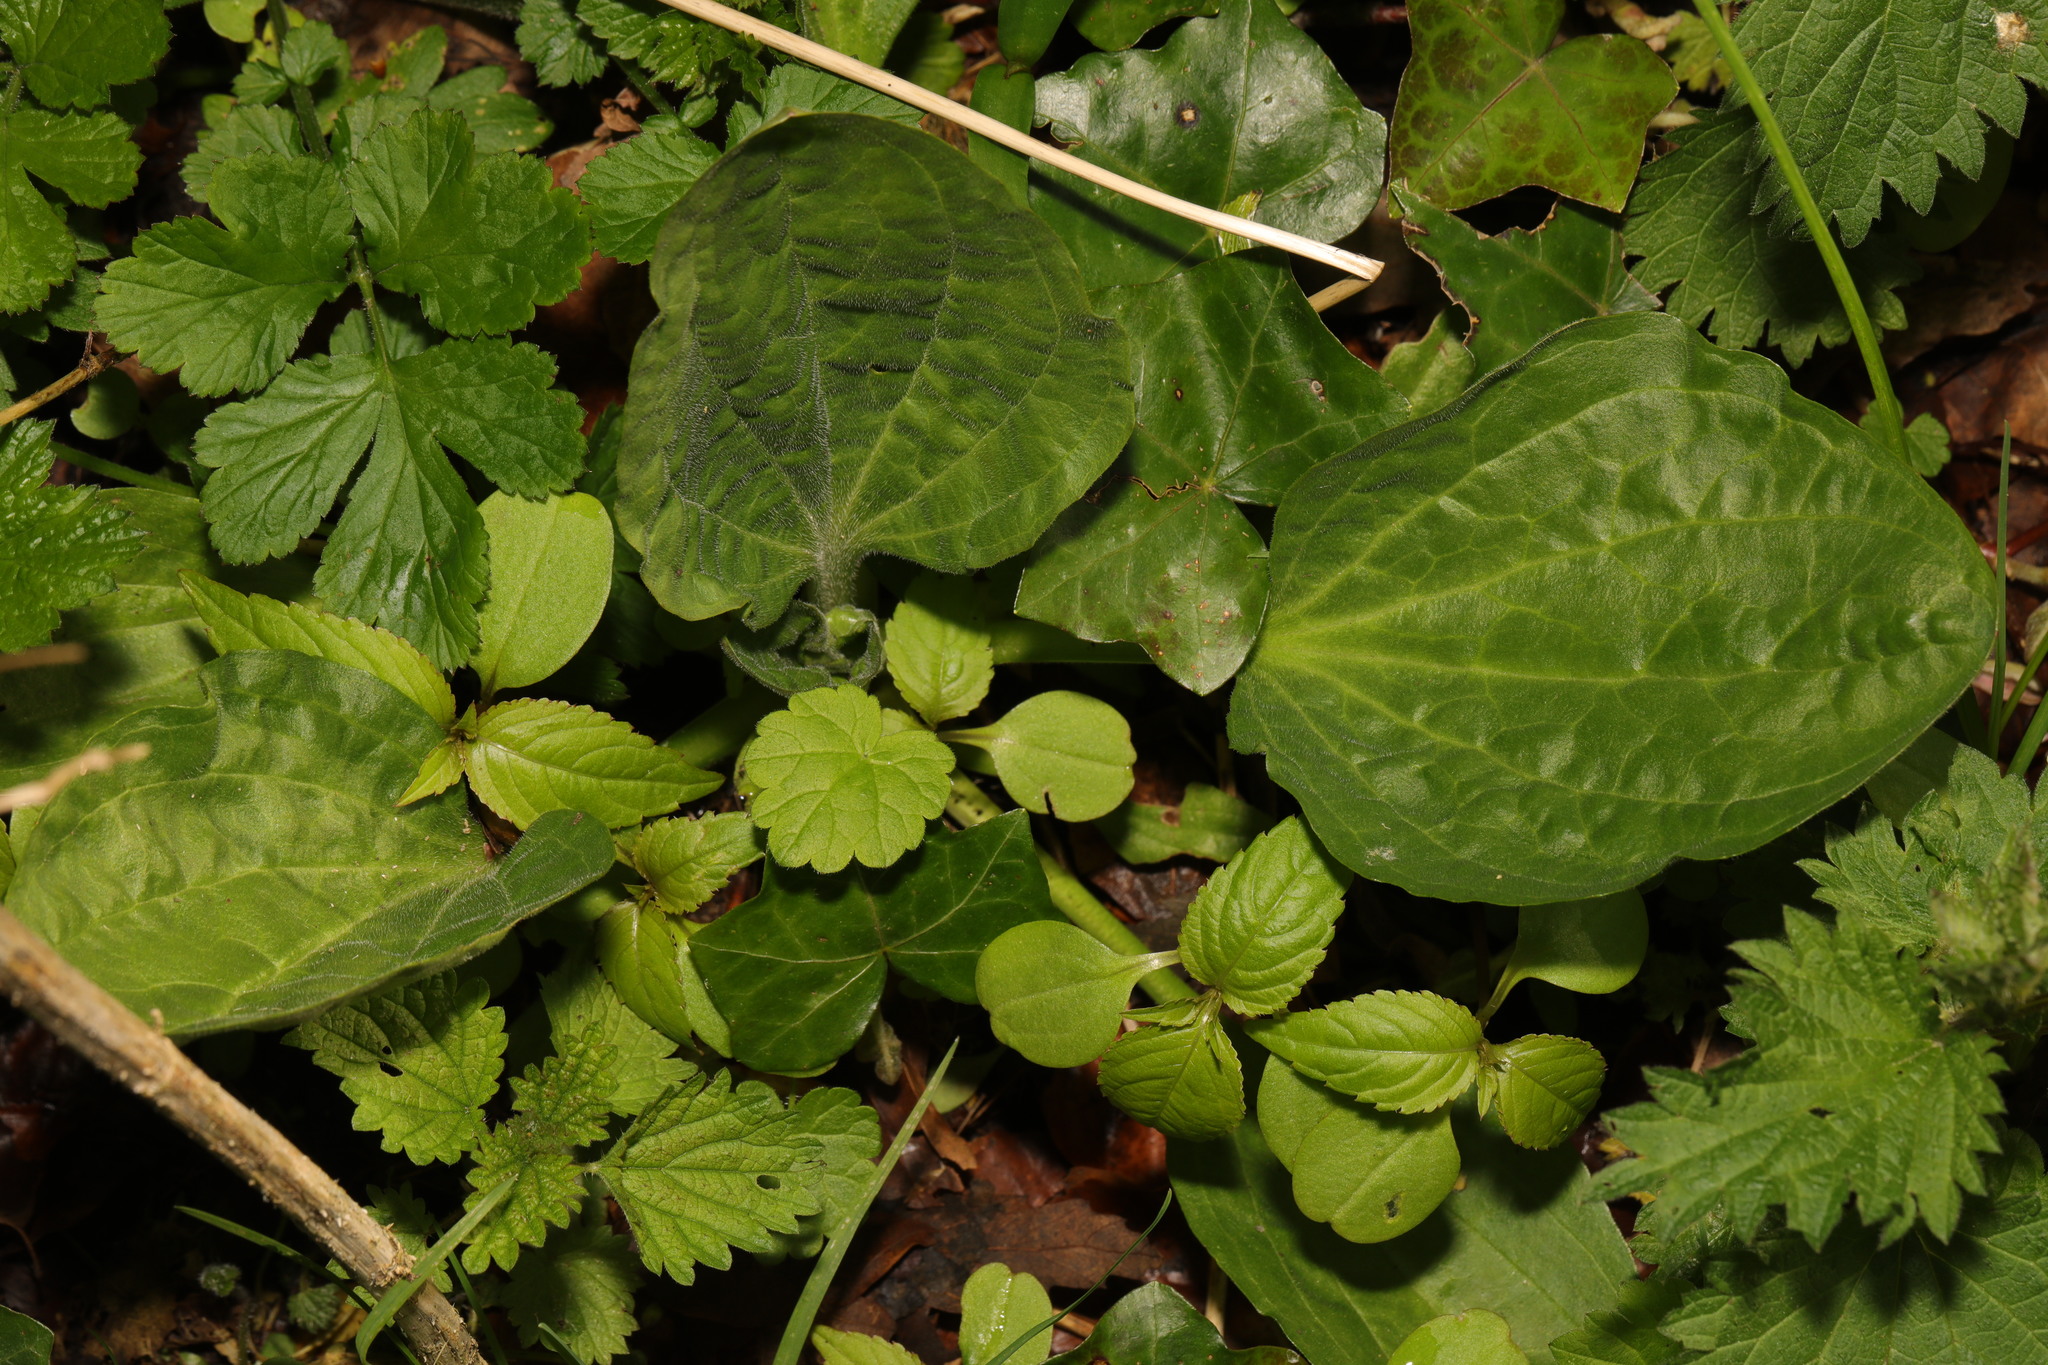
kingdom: Plantae
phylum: Tracheophyta
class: Magnoliopsida
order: Lamiales
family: Plantaginaceae
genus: Plantago
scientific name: Plantago major
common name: Common plantain
